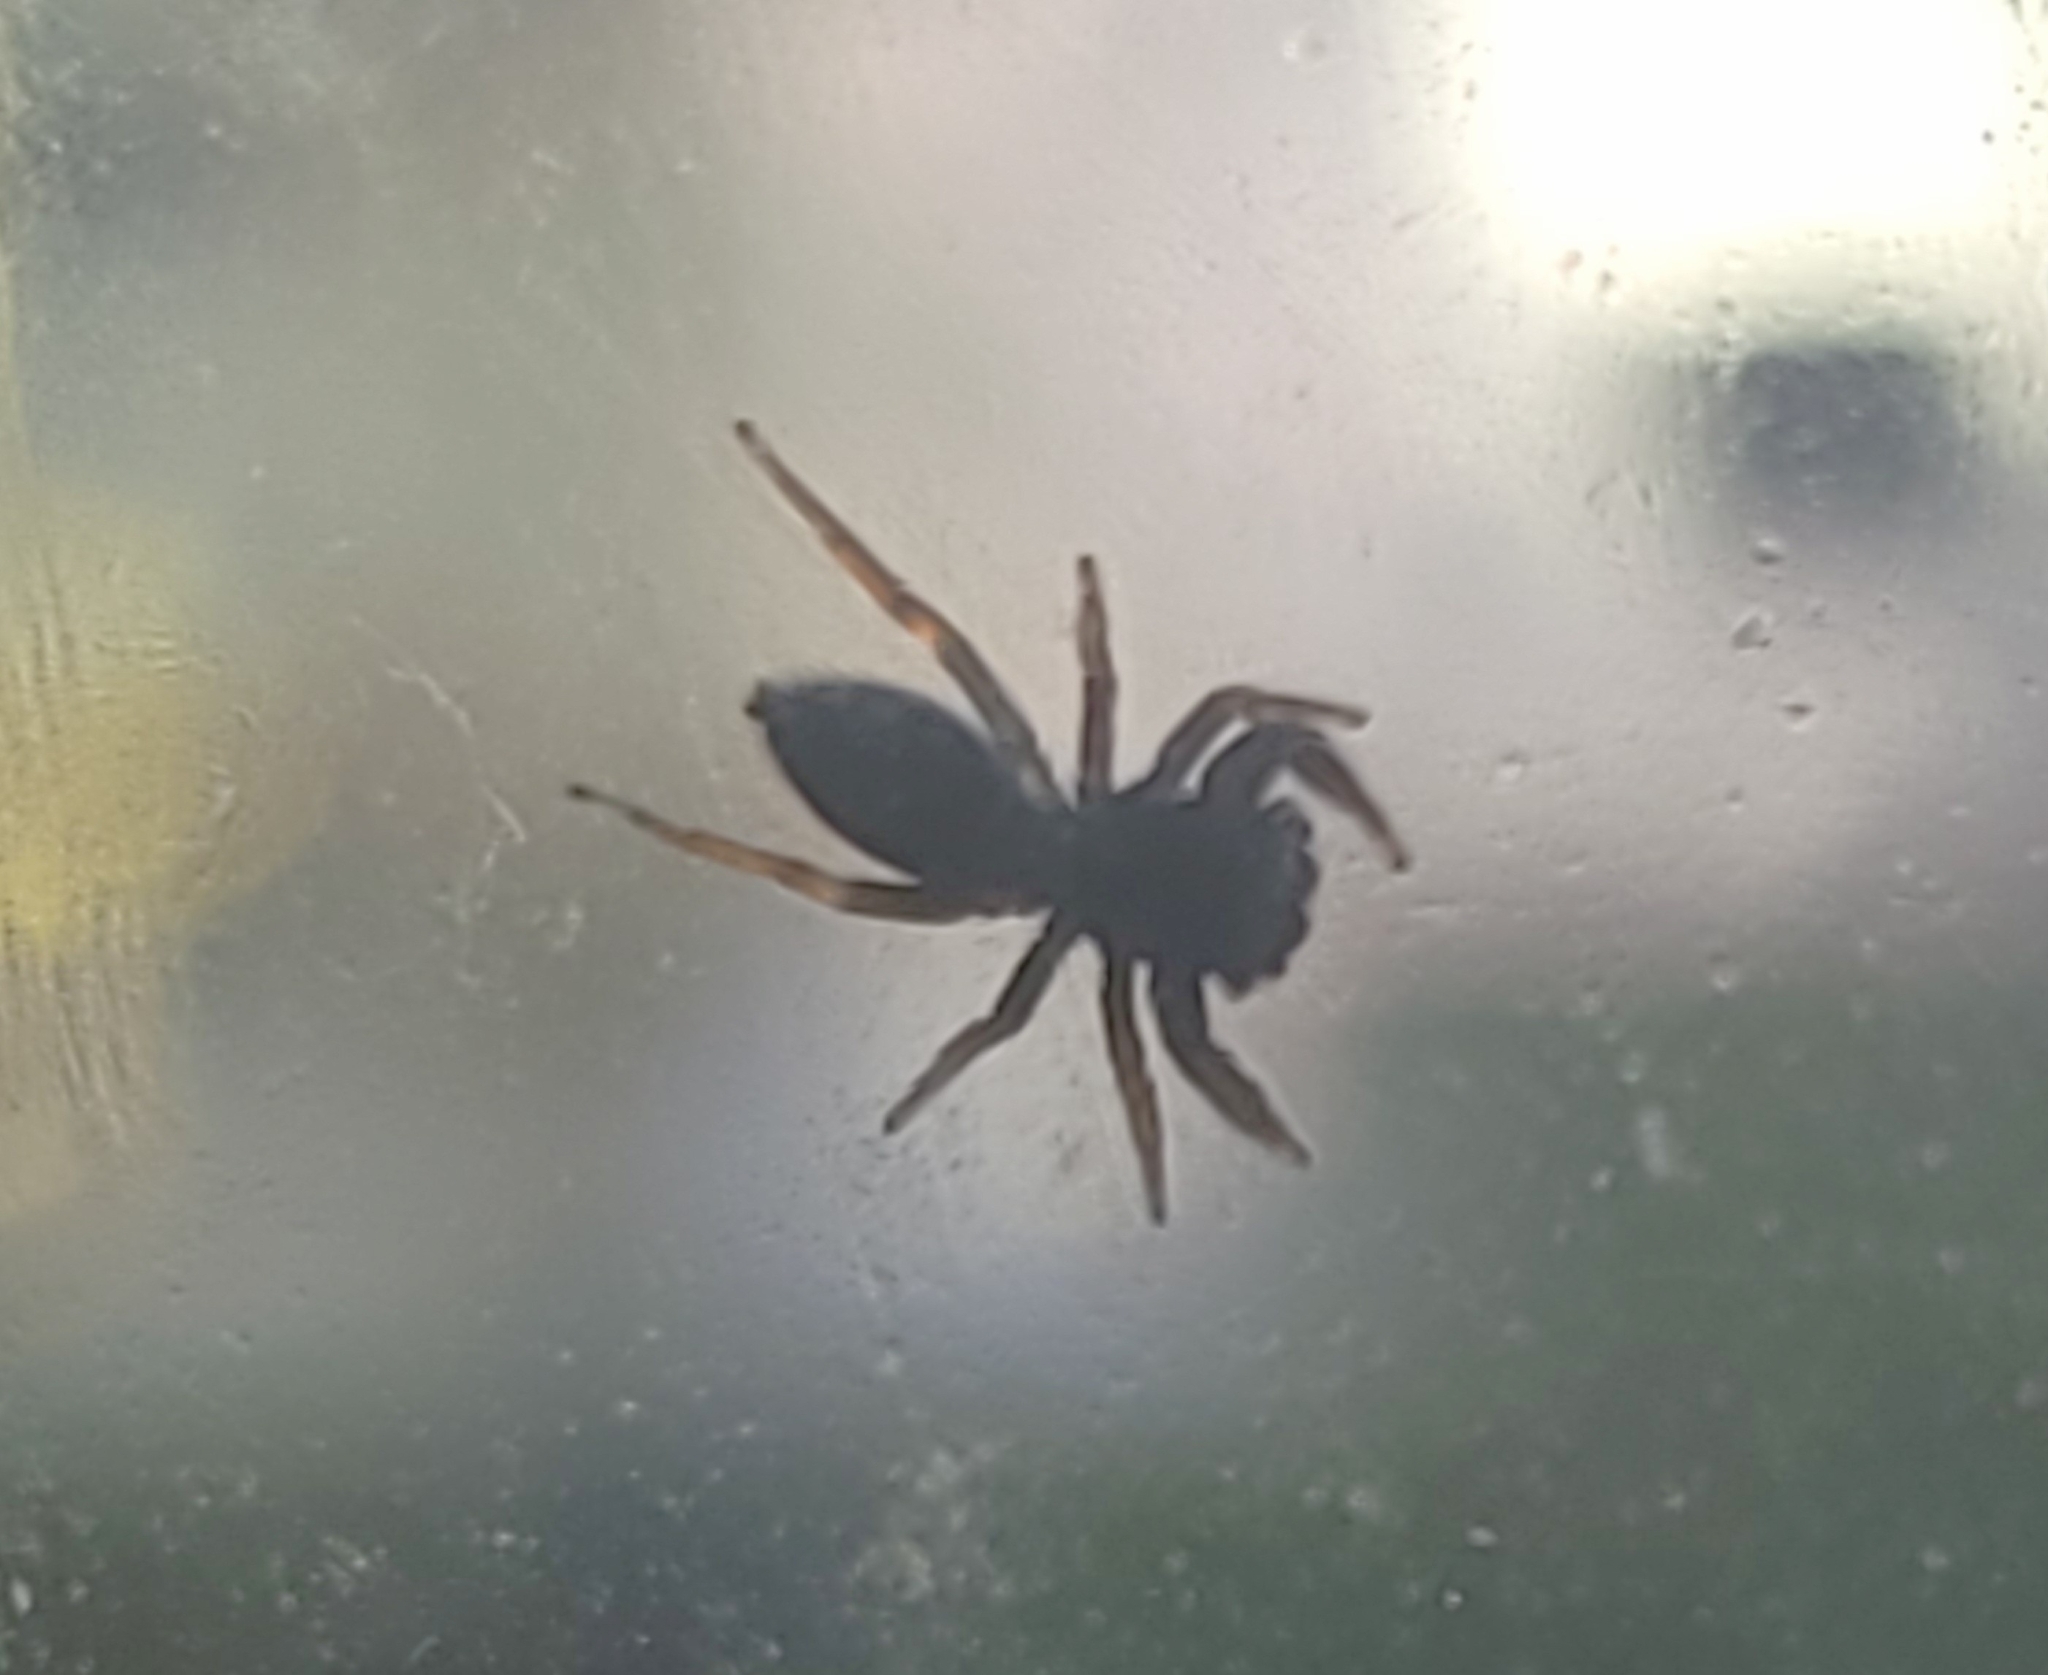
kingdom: Animalia
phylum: Arthropoda
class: Arachnida
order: Araneae
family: Salticidae
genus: Metacyrba
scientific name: Metacyrba taeniola
